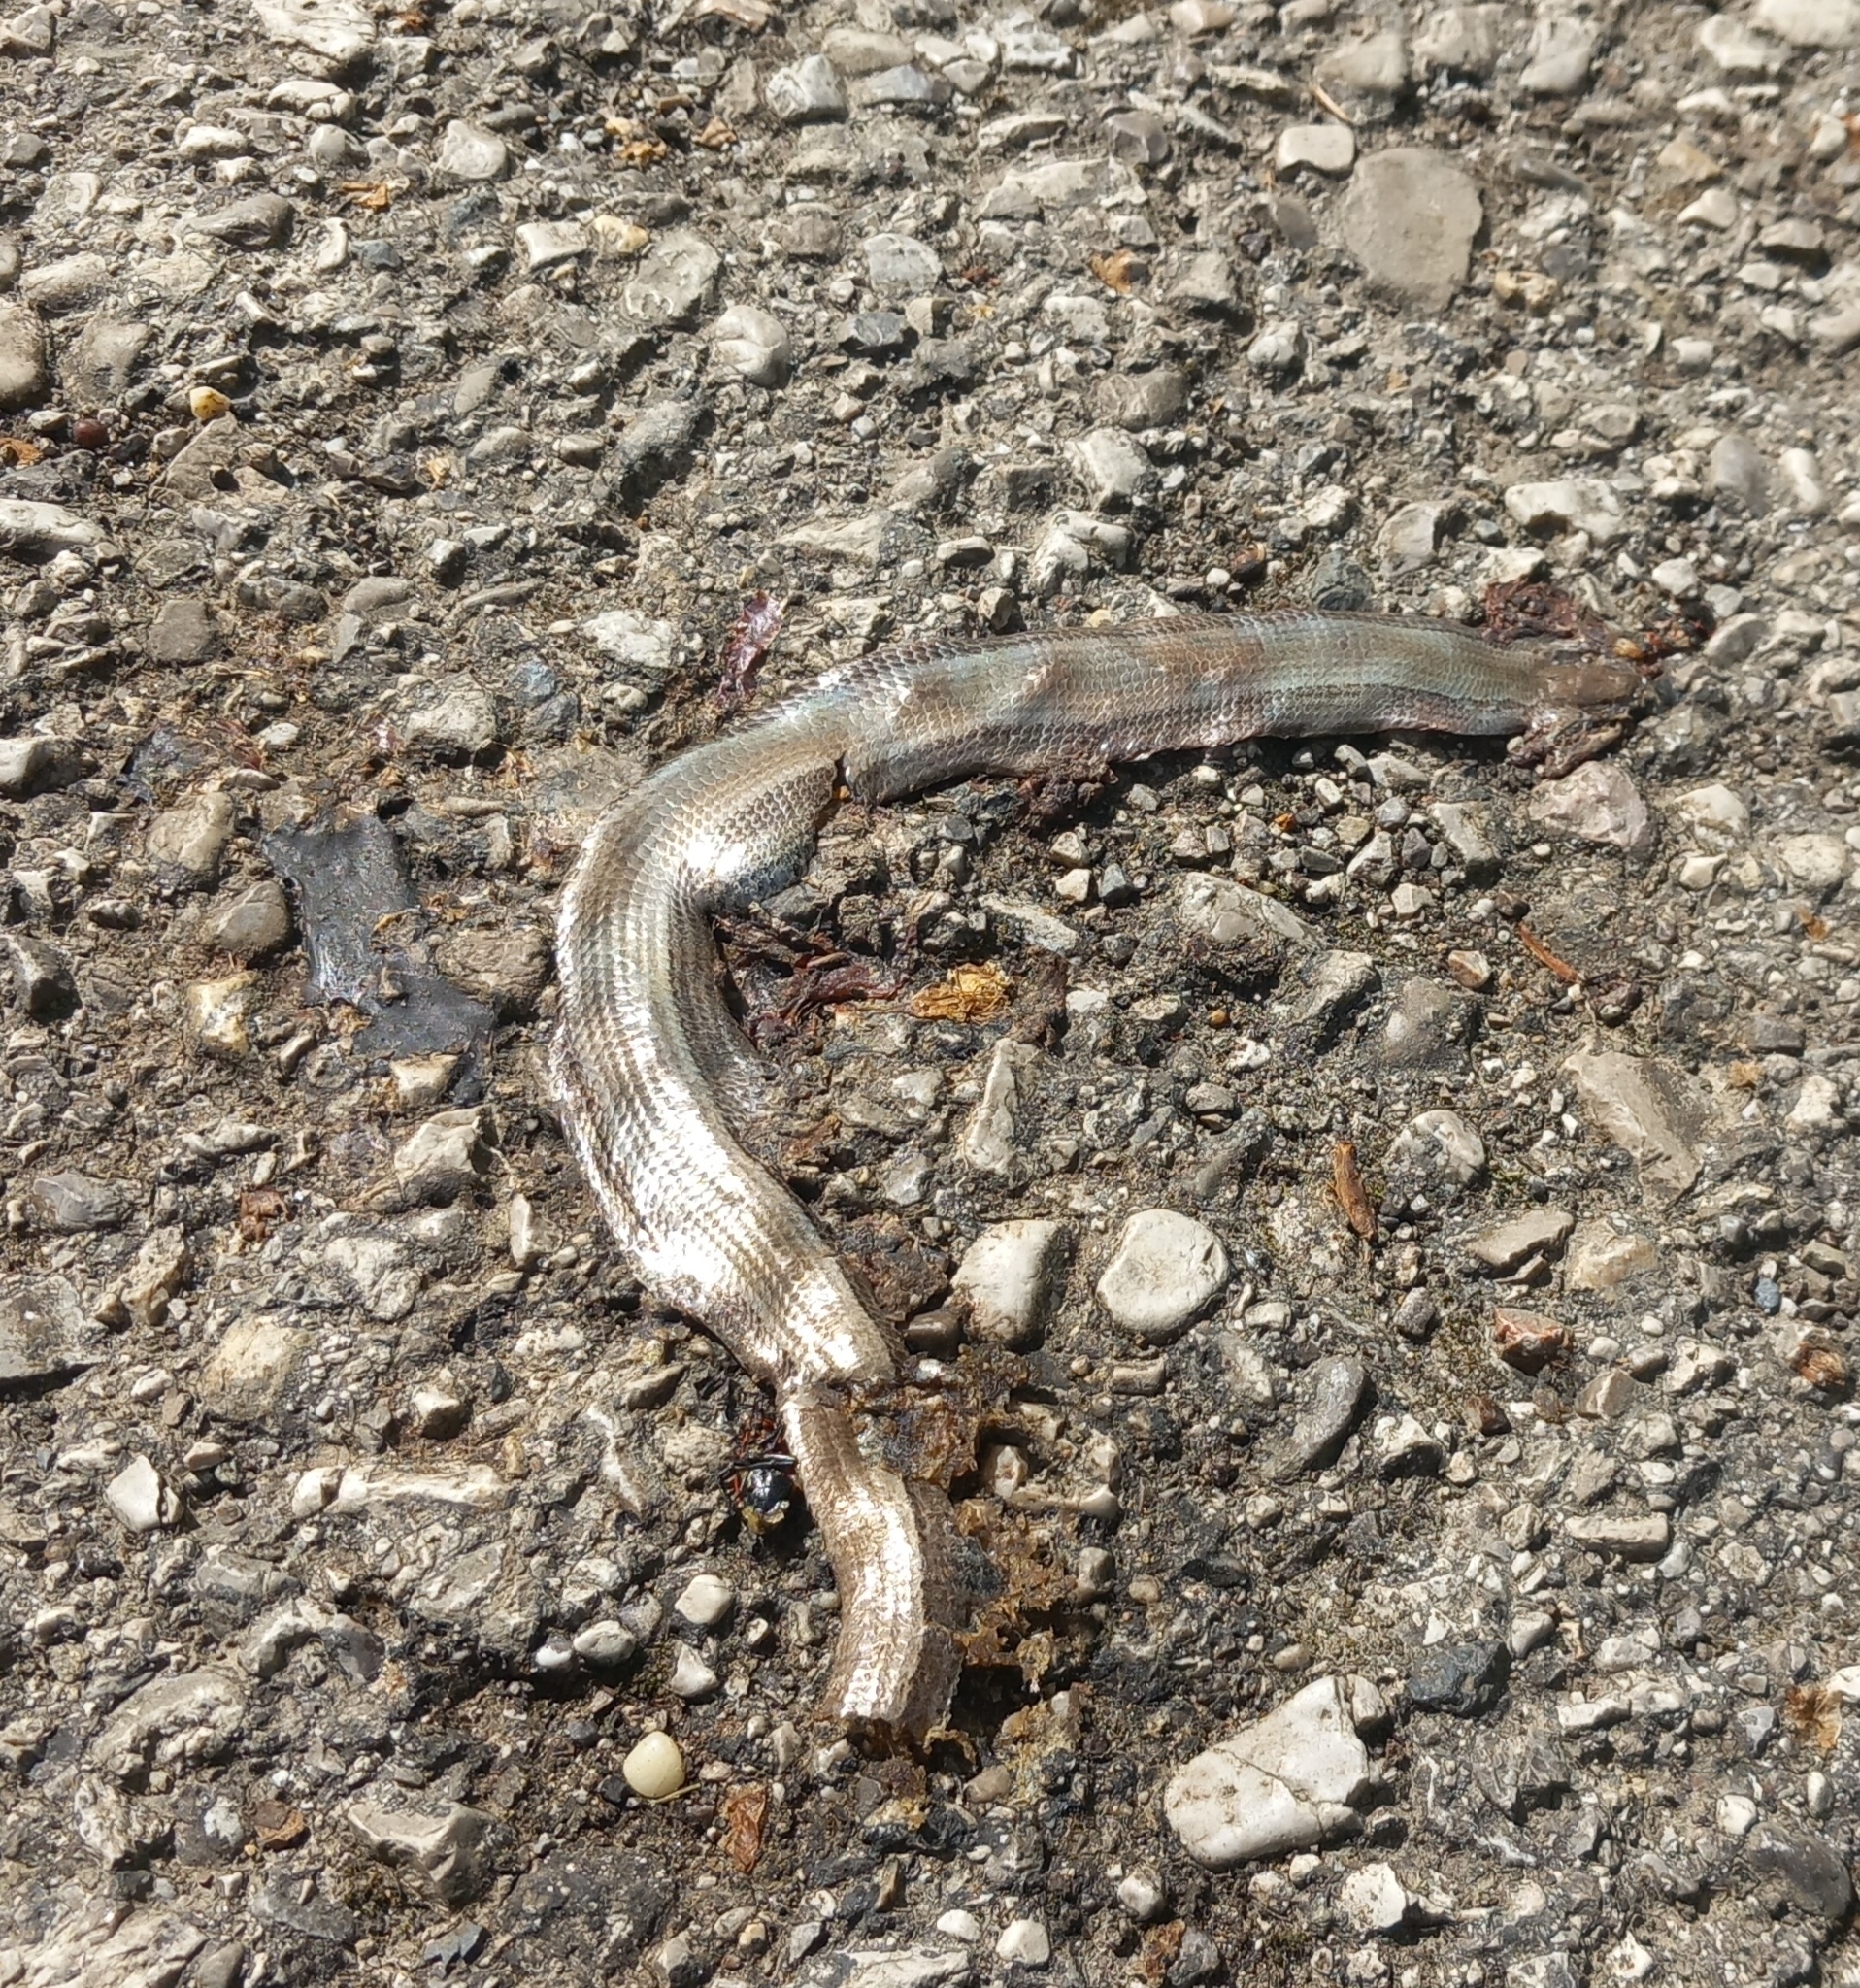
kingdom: Animalia
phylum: Chordata
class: Squamata
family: Anguidae
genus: Anguis
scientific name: Anguis fragilis
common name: Slow worm
